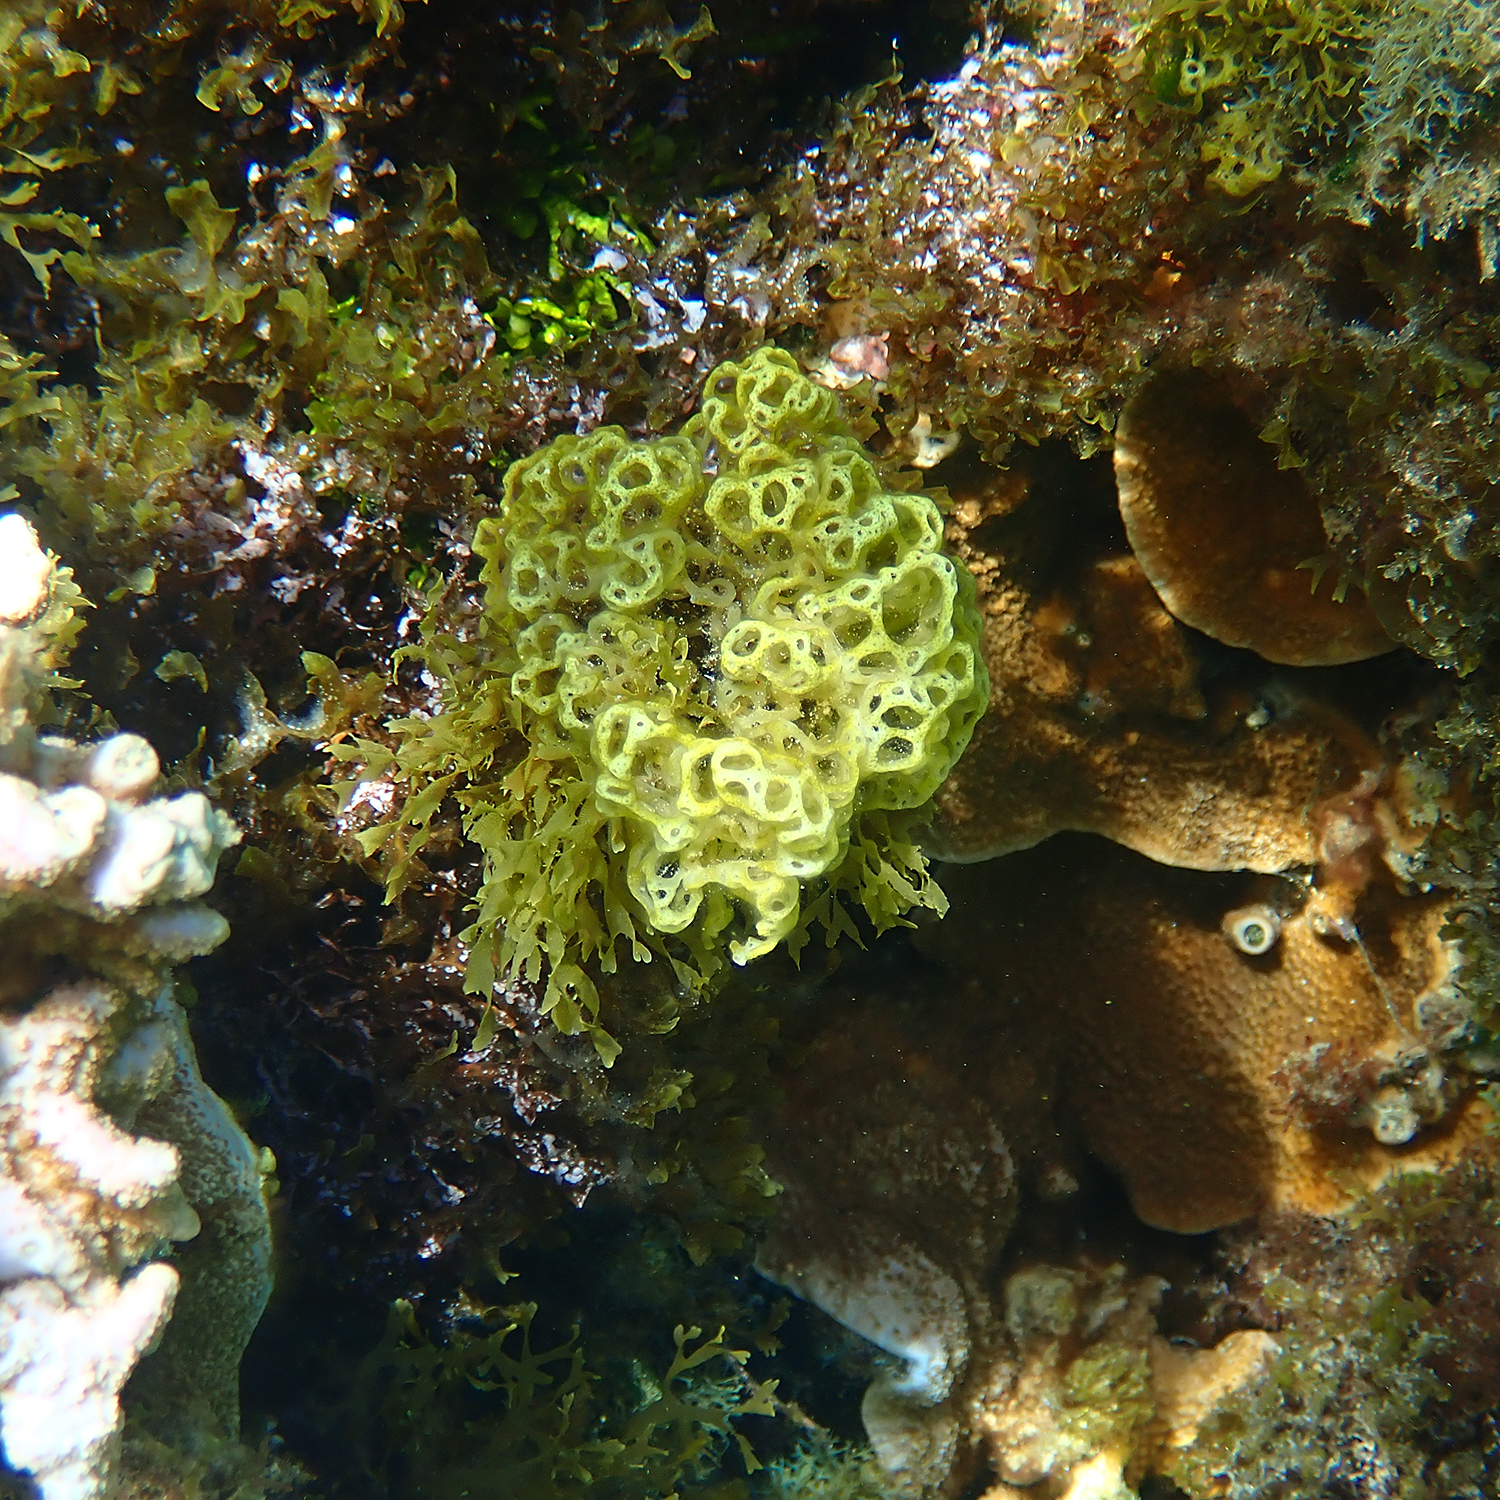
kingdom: Chromista
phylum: Ochrophyta
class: Phaeophyceae
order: Scytosiphonales
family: Scytosiphonaceae
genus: Hydroclathrus
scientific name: Hydroclathrus clathratus
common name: Swiss cheese algae
